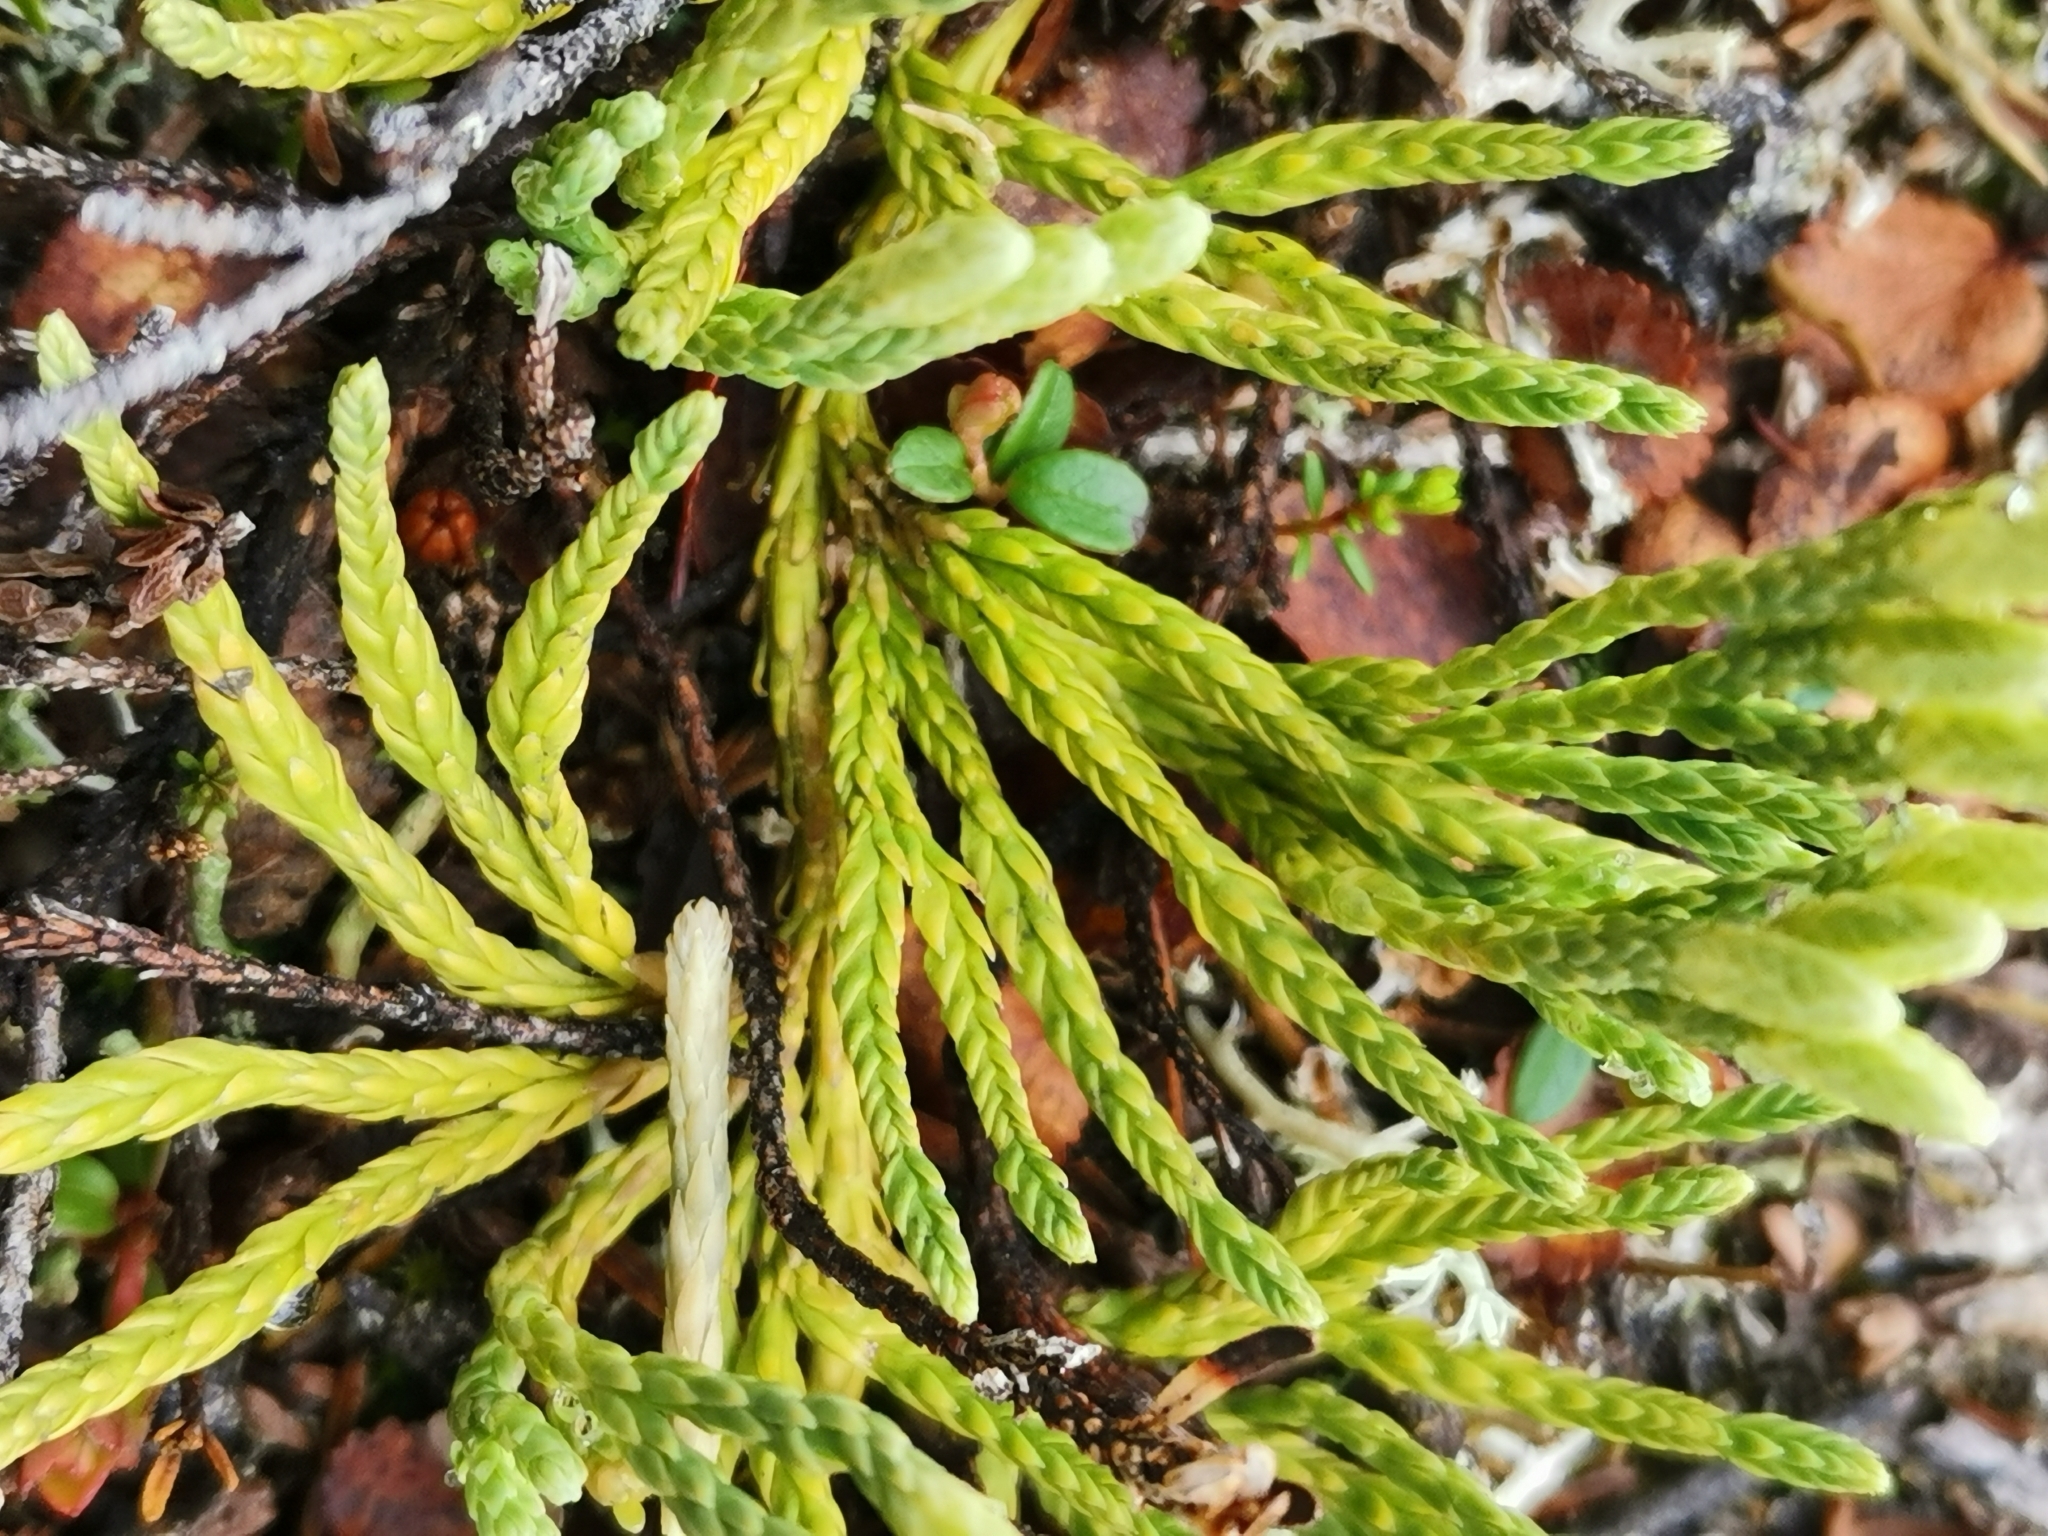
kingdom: Plantae
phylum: Tracheophyta
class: Lycopodiopsida
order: Lycopodiales
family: Lycopodiaceae
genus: Diphasiastrum
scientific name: Diphasiastrum alpinum
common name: Alpine clubmoss
